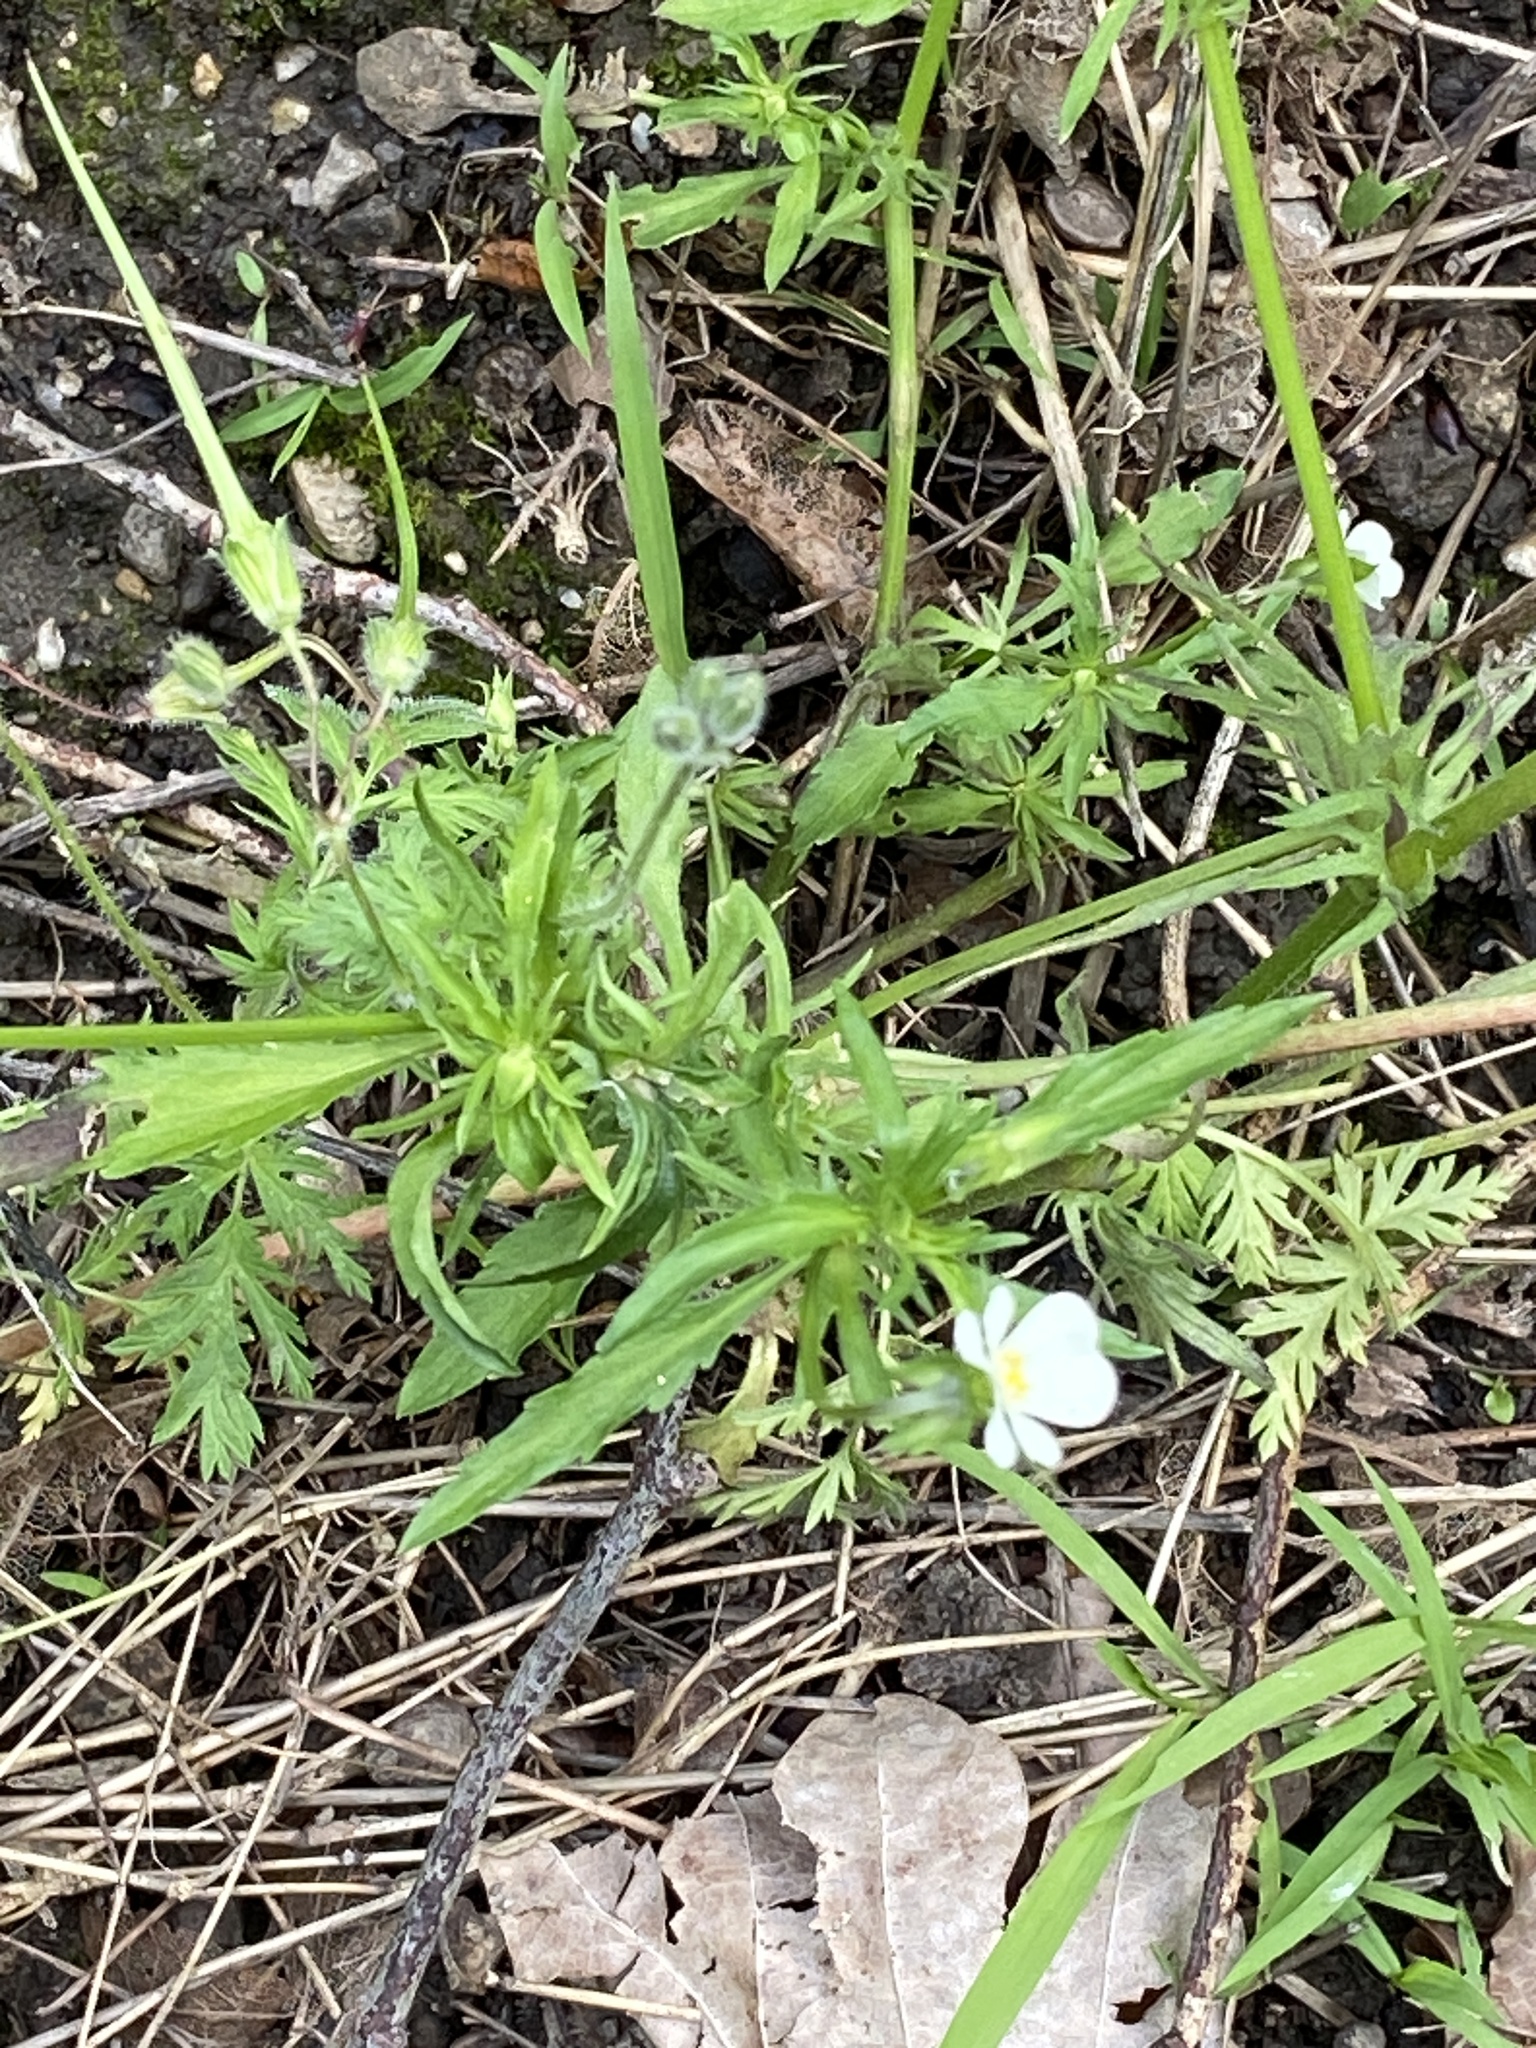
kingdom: Plantae
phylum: Tracheophyta
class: Magnoliopsida
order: Malpighiales
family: Violaceae
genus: Viola
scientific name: Viola arvensis
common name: Field pansy
